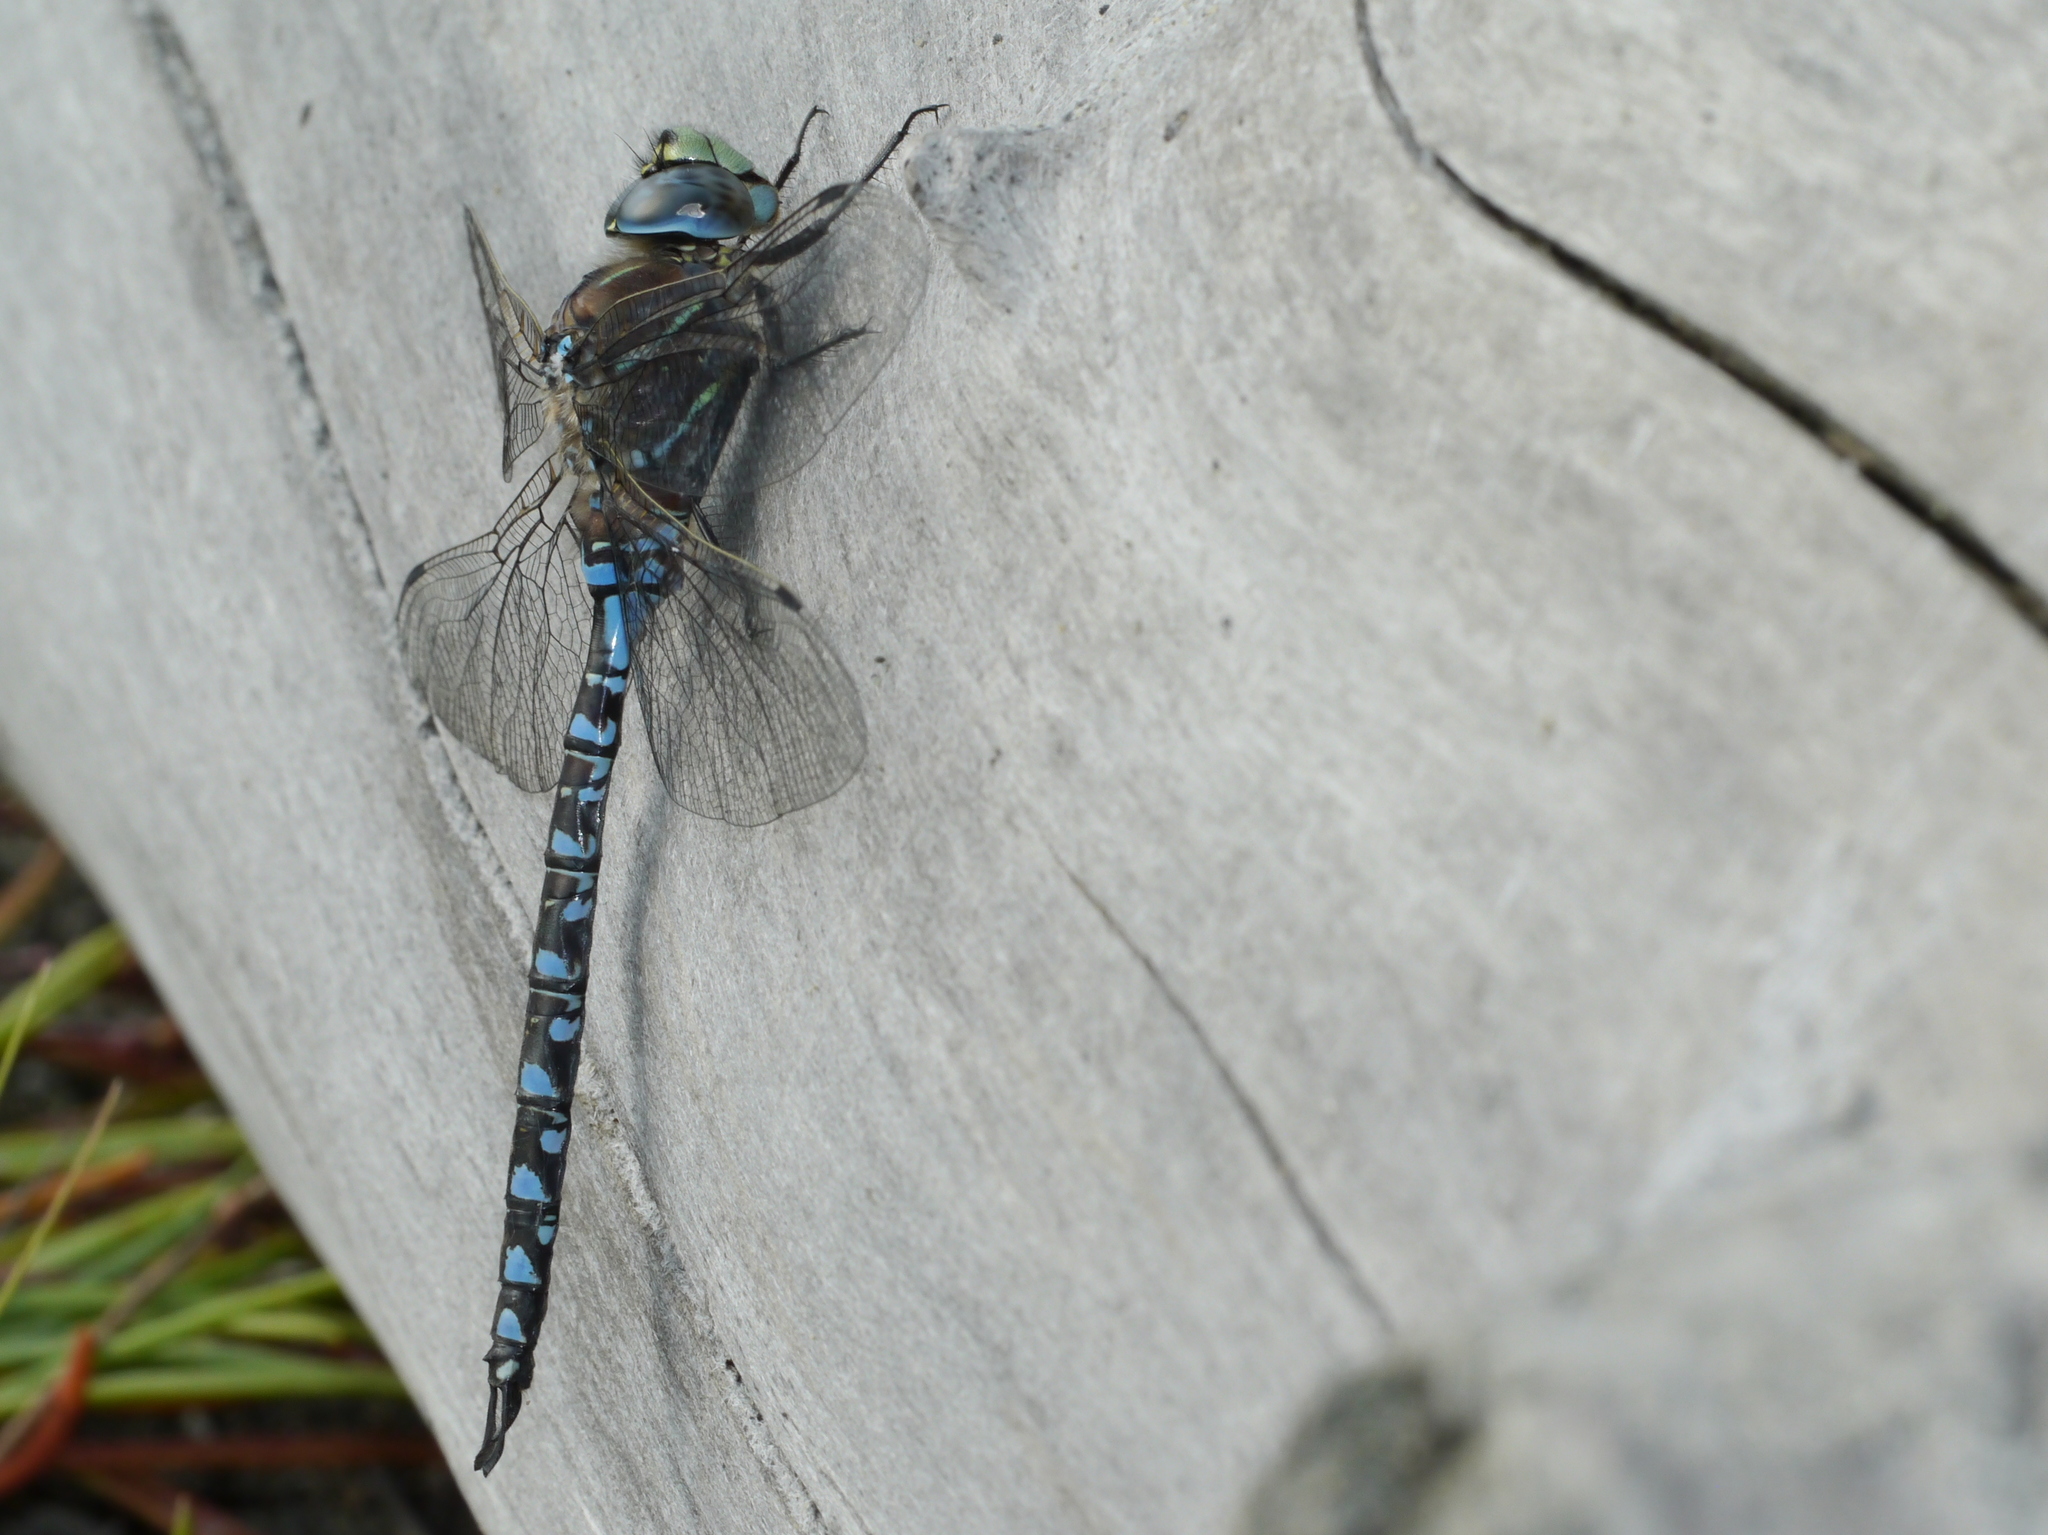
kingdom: Animalia
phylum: Arthropoda
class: Insecta
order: Odonata
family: Aeshnidae
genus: Aeshna
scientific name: Aeshna interrupta
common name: Variable darner
